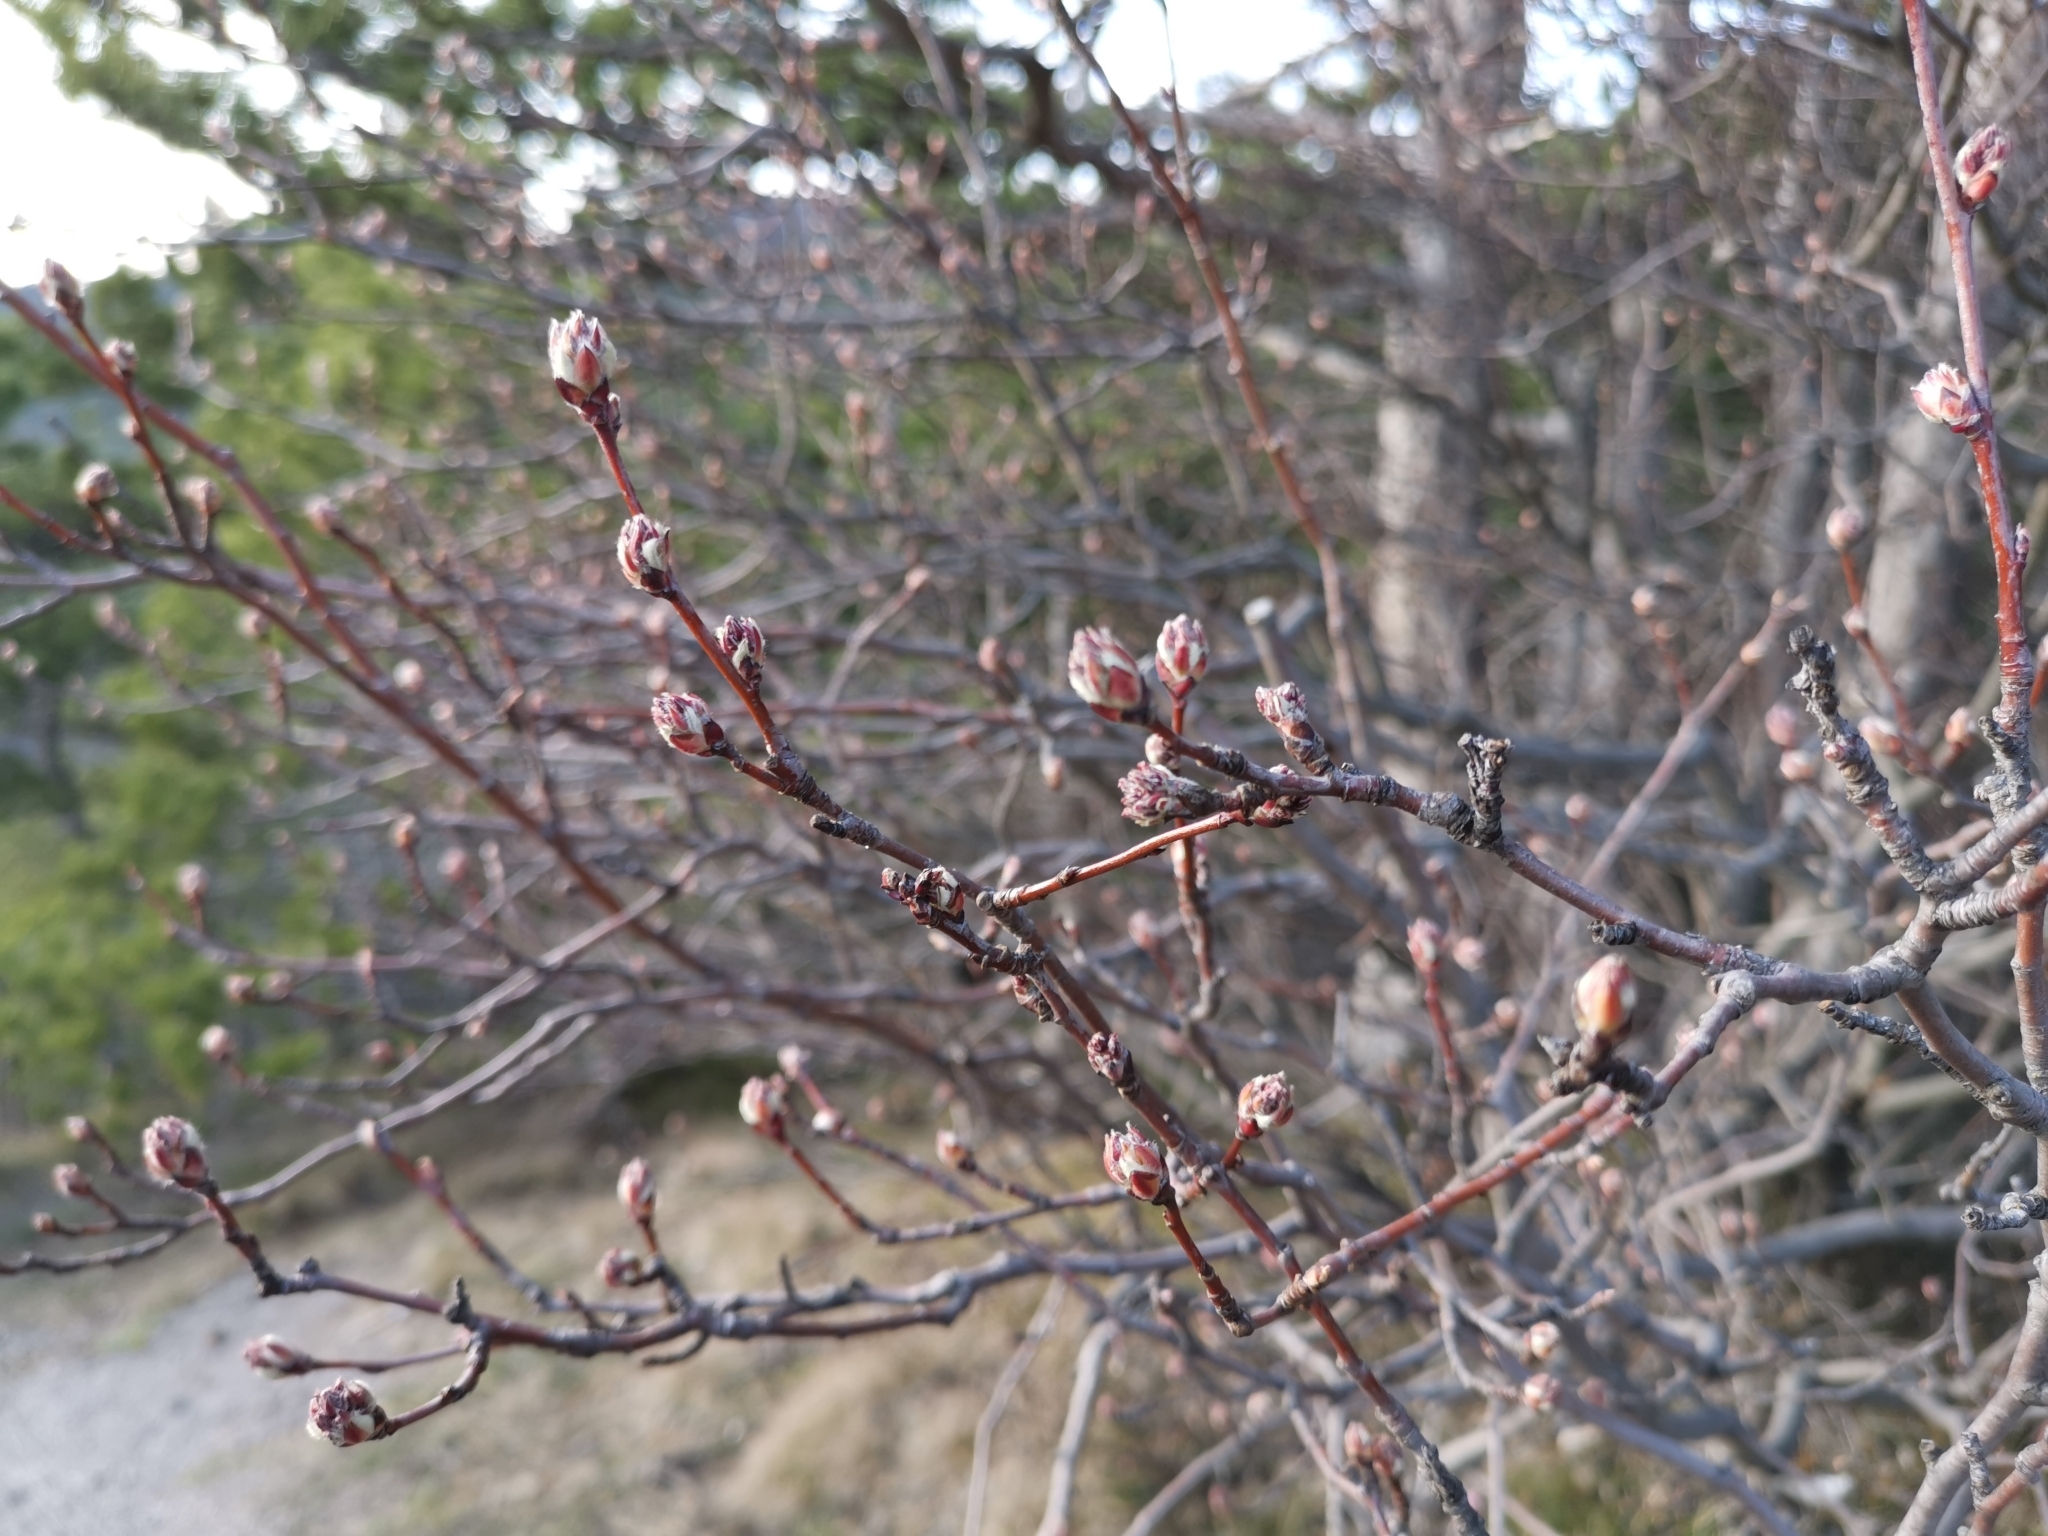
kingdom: Plantae
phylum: Tracheophyta
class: Magnoliopsida
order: Rosales
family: Rosaceae
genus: Amelanchier
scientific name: Amelanchier ovalis
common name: Serviceberry
